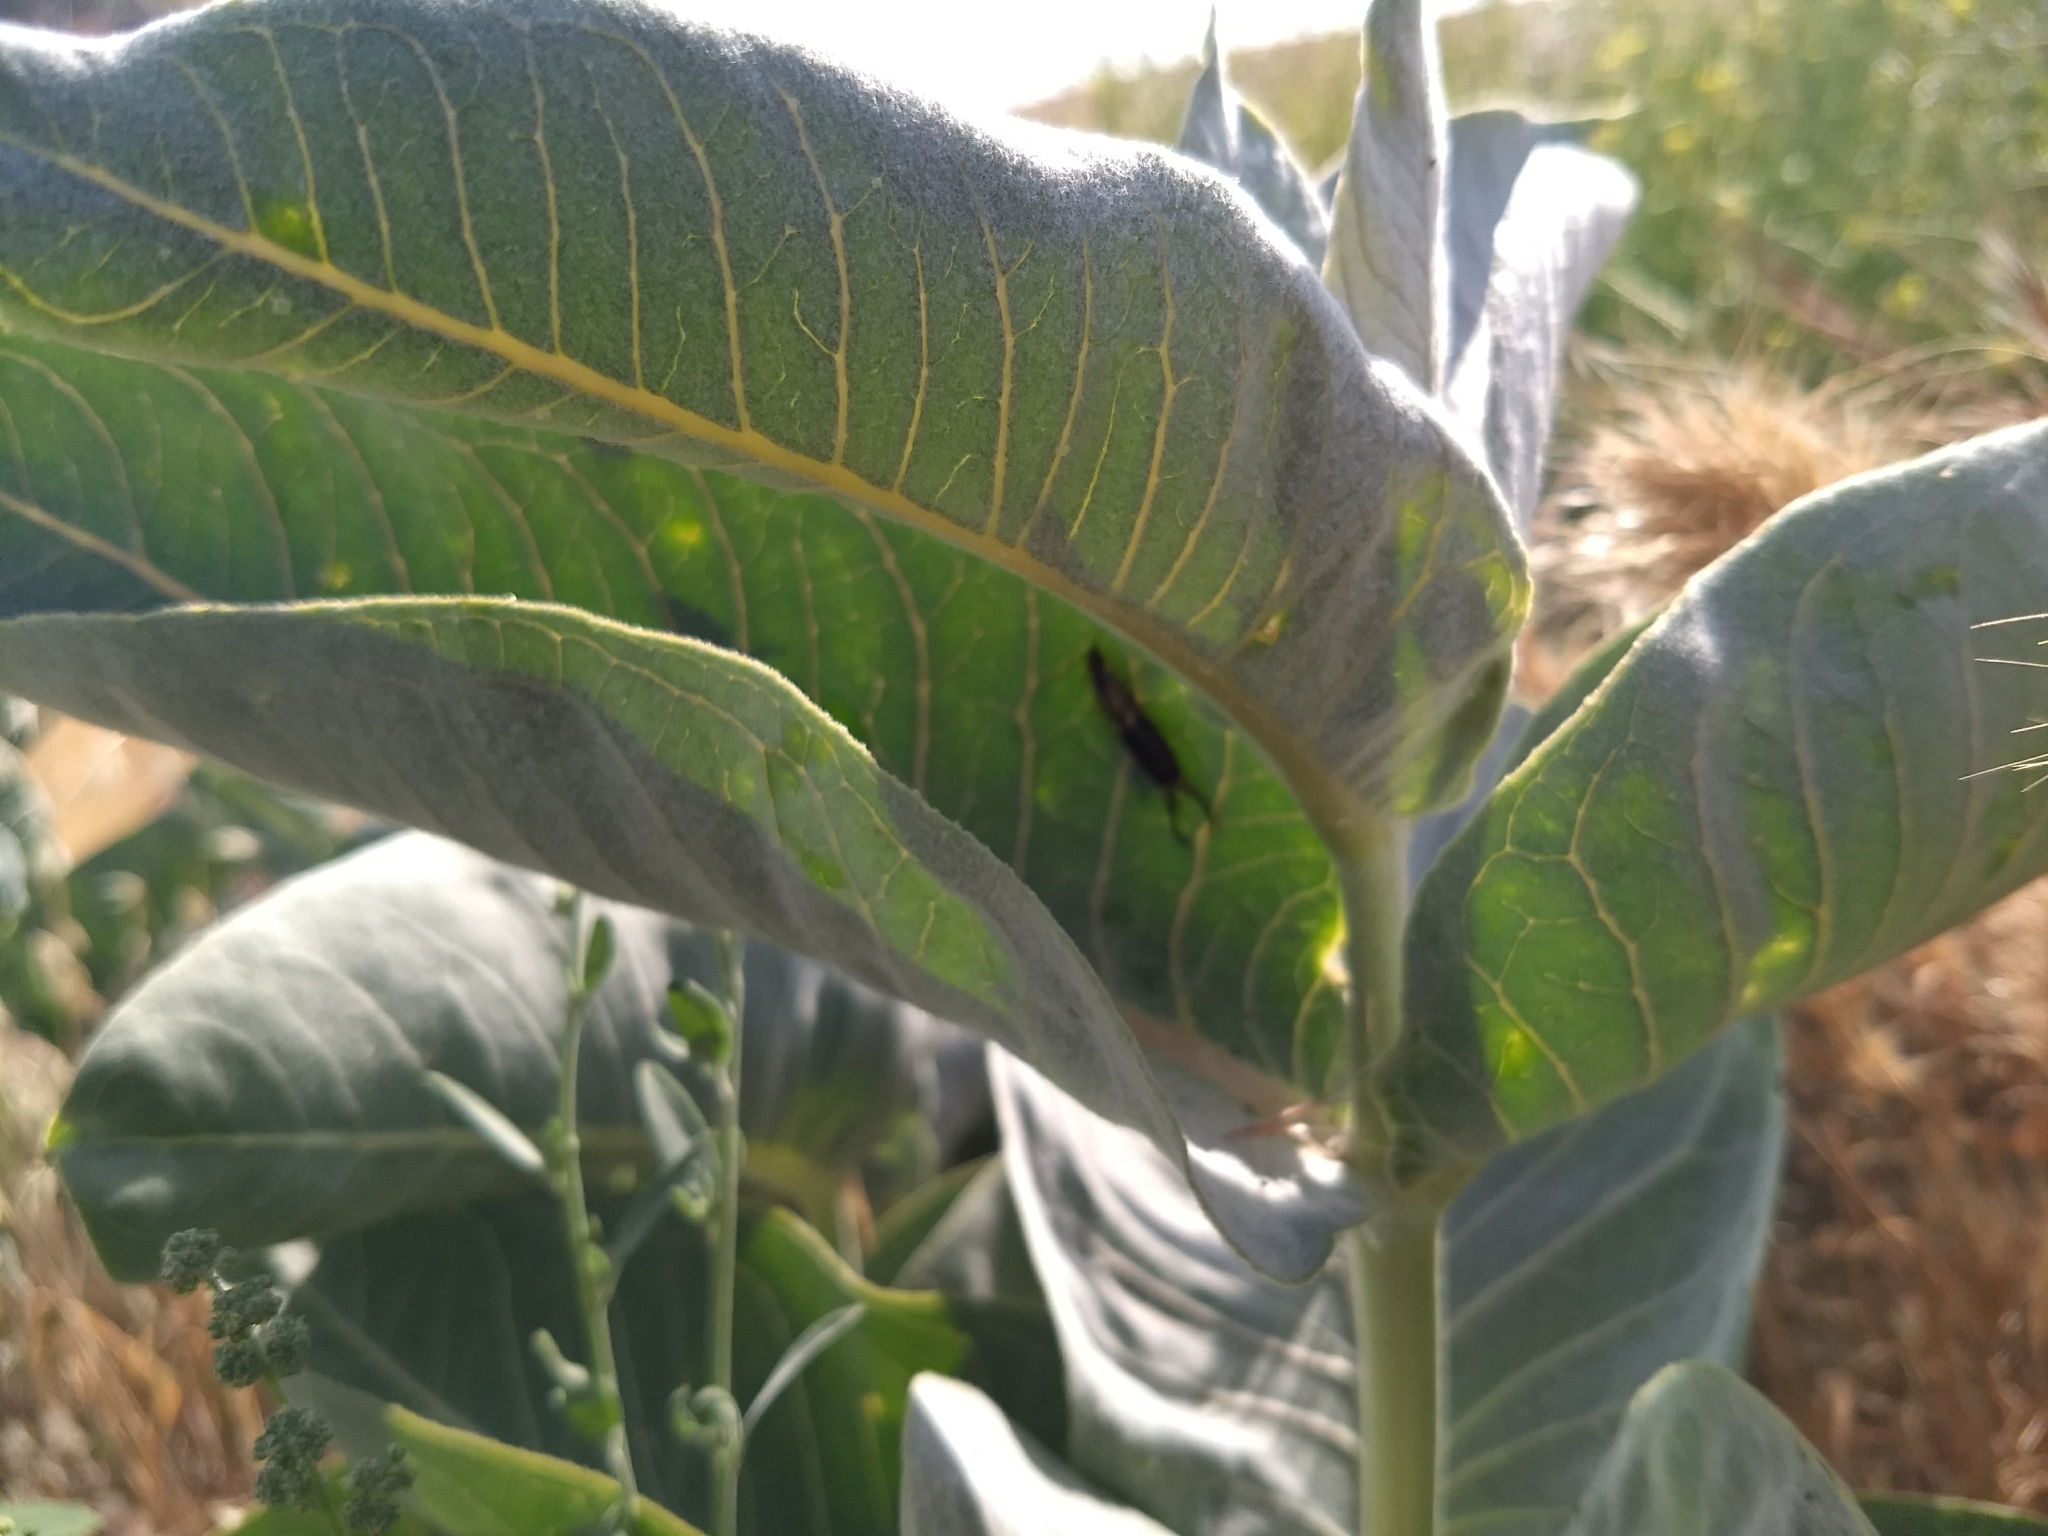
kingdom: Plantae
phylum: Tracheophyta
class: Magnoliopsida
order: Gentianales
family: Apocynaceae
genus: Asclepias
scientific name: Asclepias erosa
